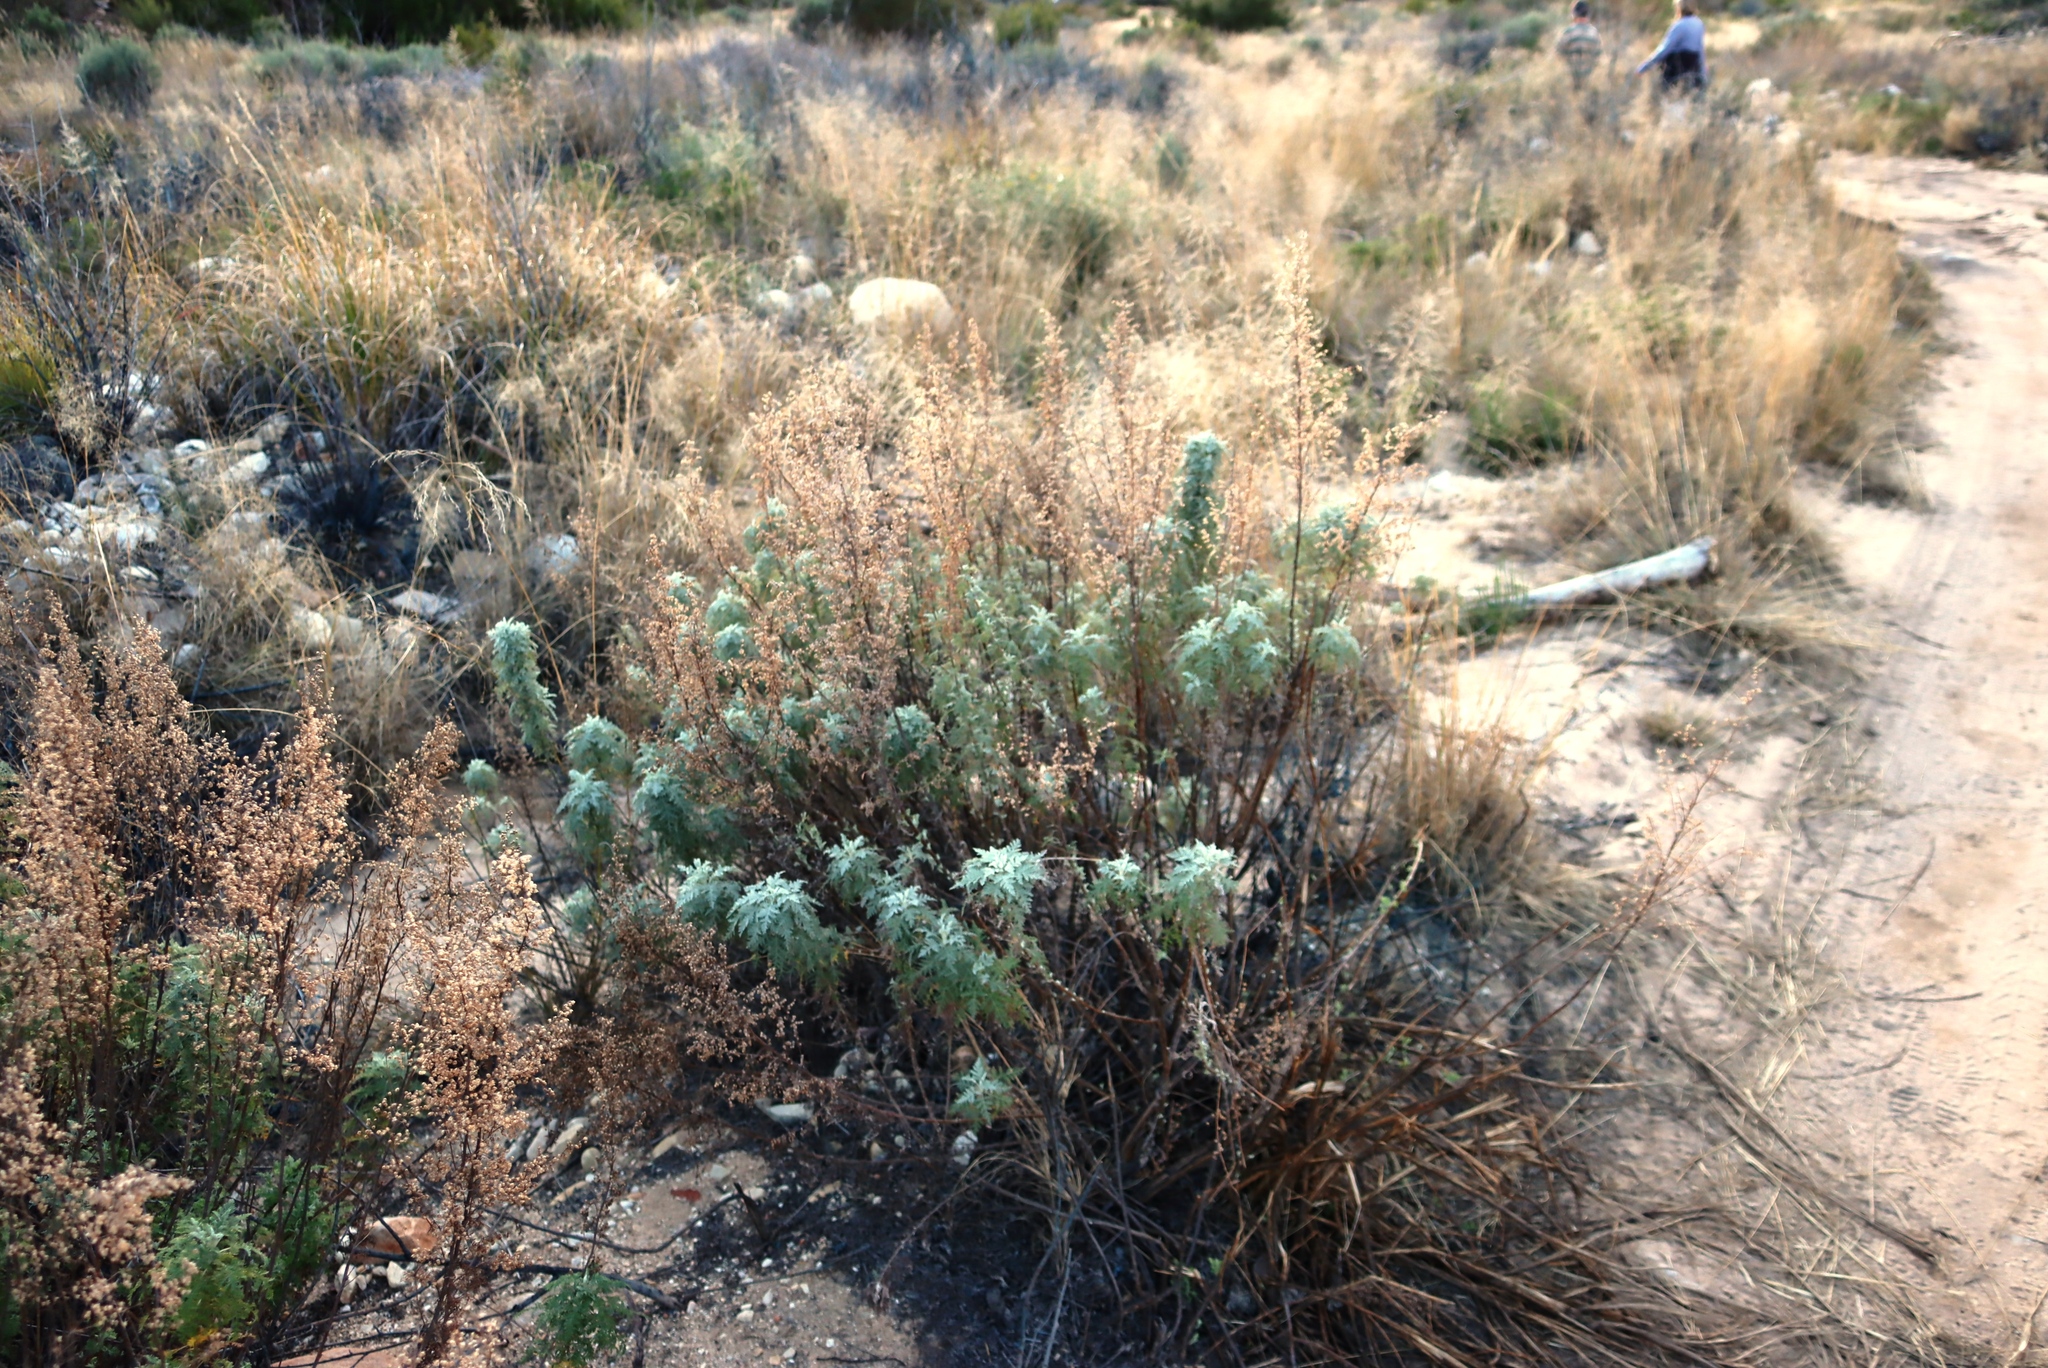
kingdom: Plantae
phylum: Tracheophyta
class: Magnoliopsida
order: Asterales
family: Asteraceae
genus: Artemisia
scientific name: Artemisia afra
